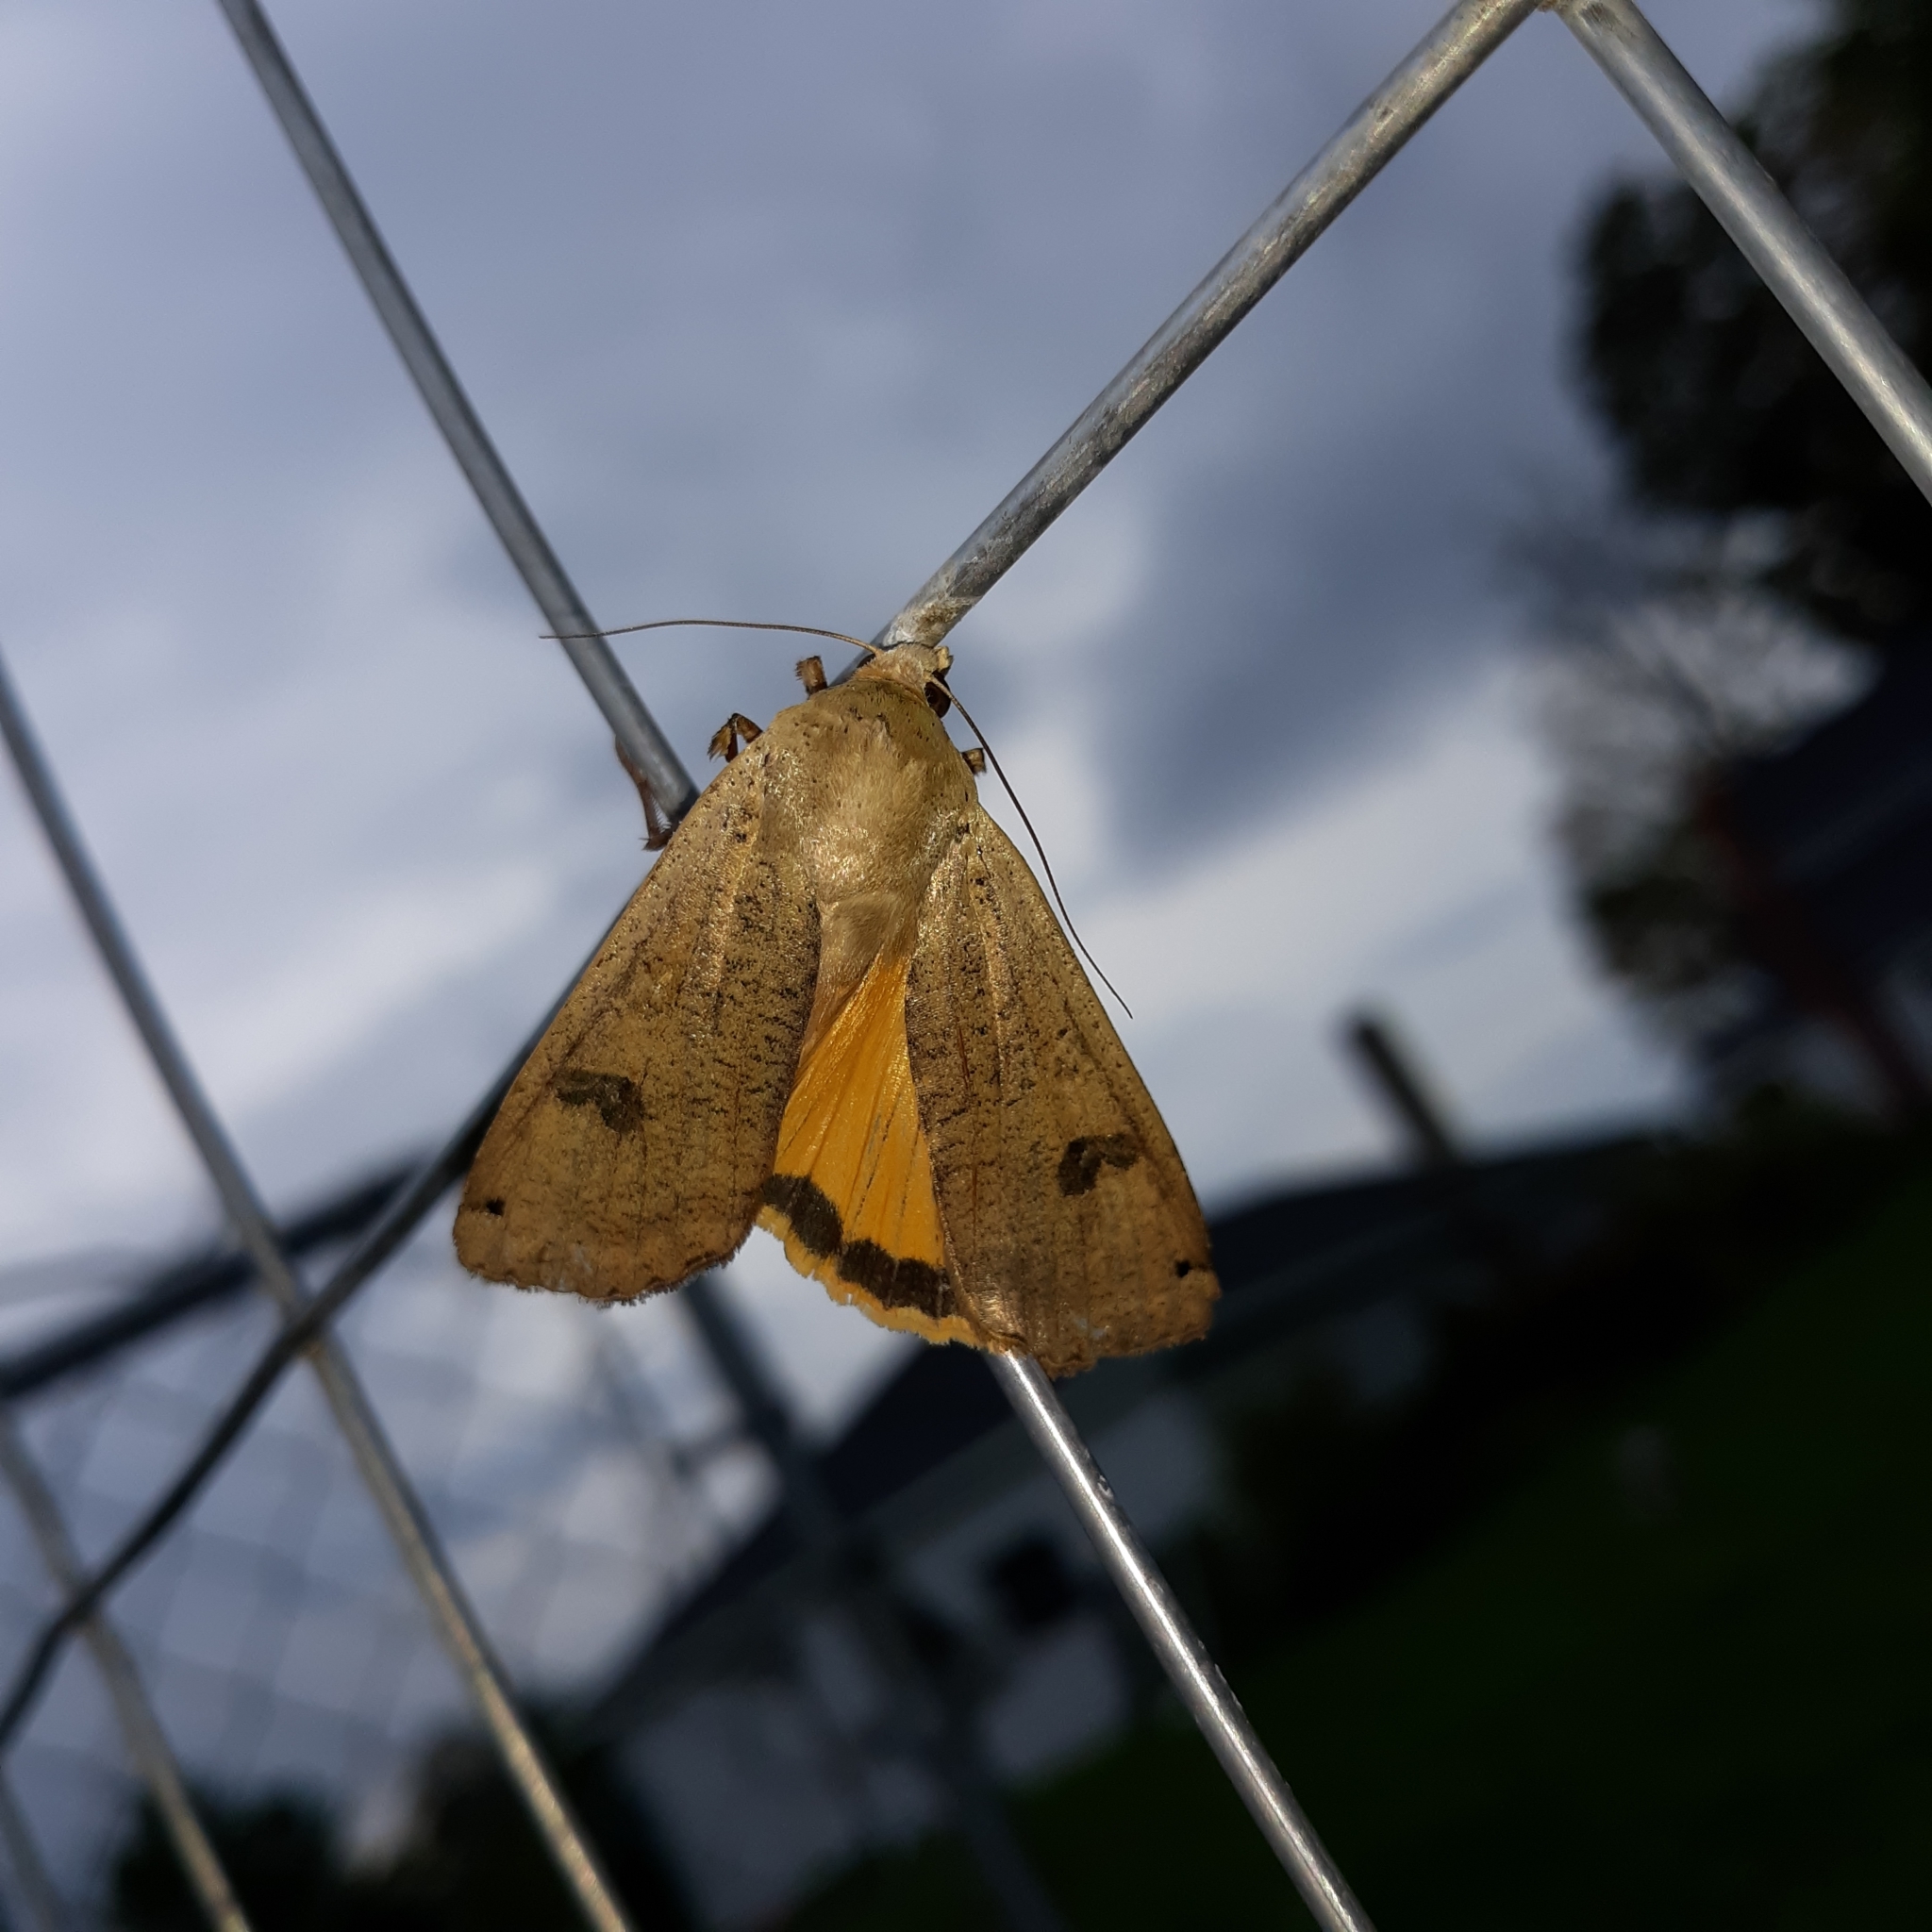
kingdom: Animalia
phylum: Arthropoda
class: Insecta
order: Lepidoptera
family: Noctuidae
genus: Noctua
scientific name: Noctua pronuba
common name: Large yellow underwing
